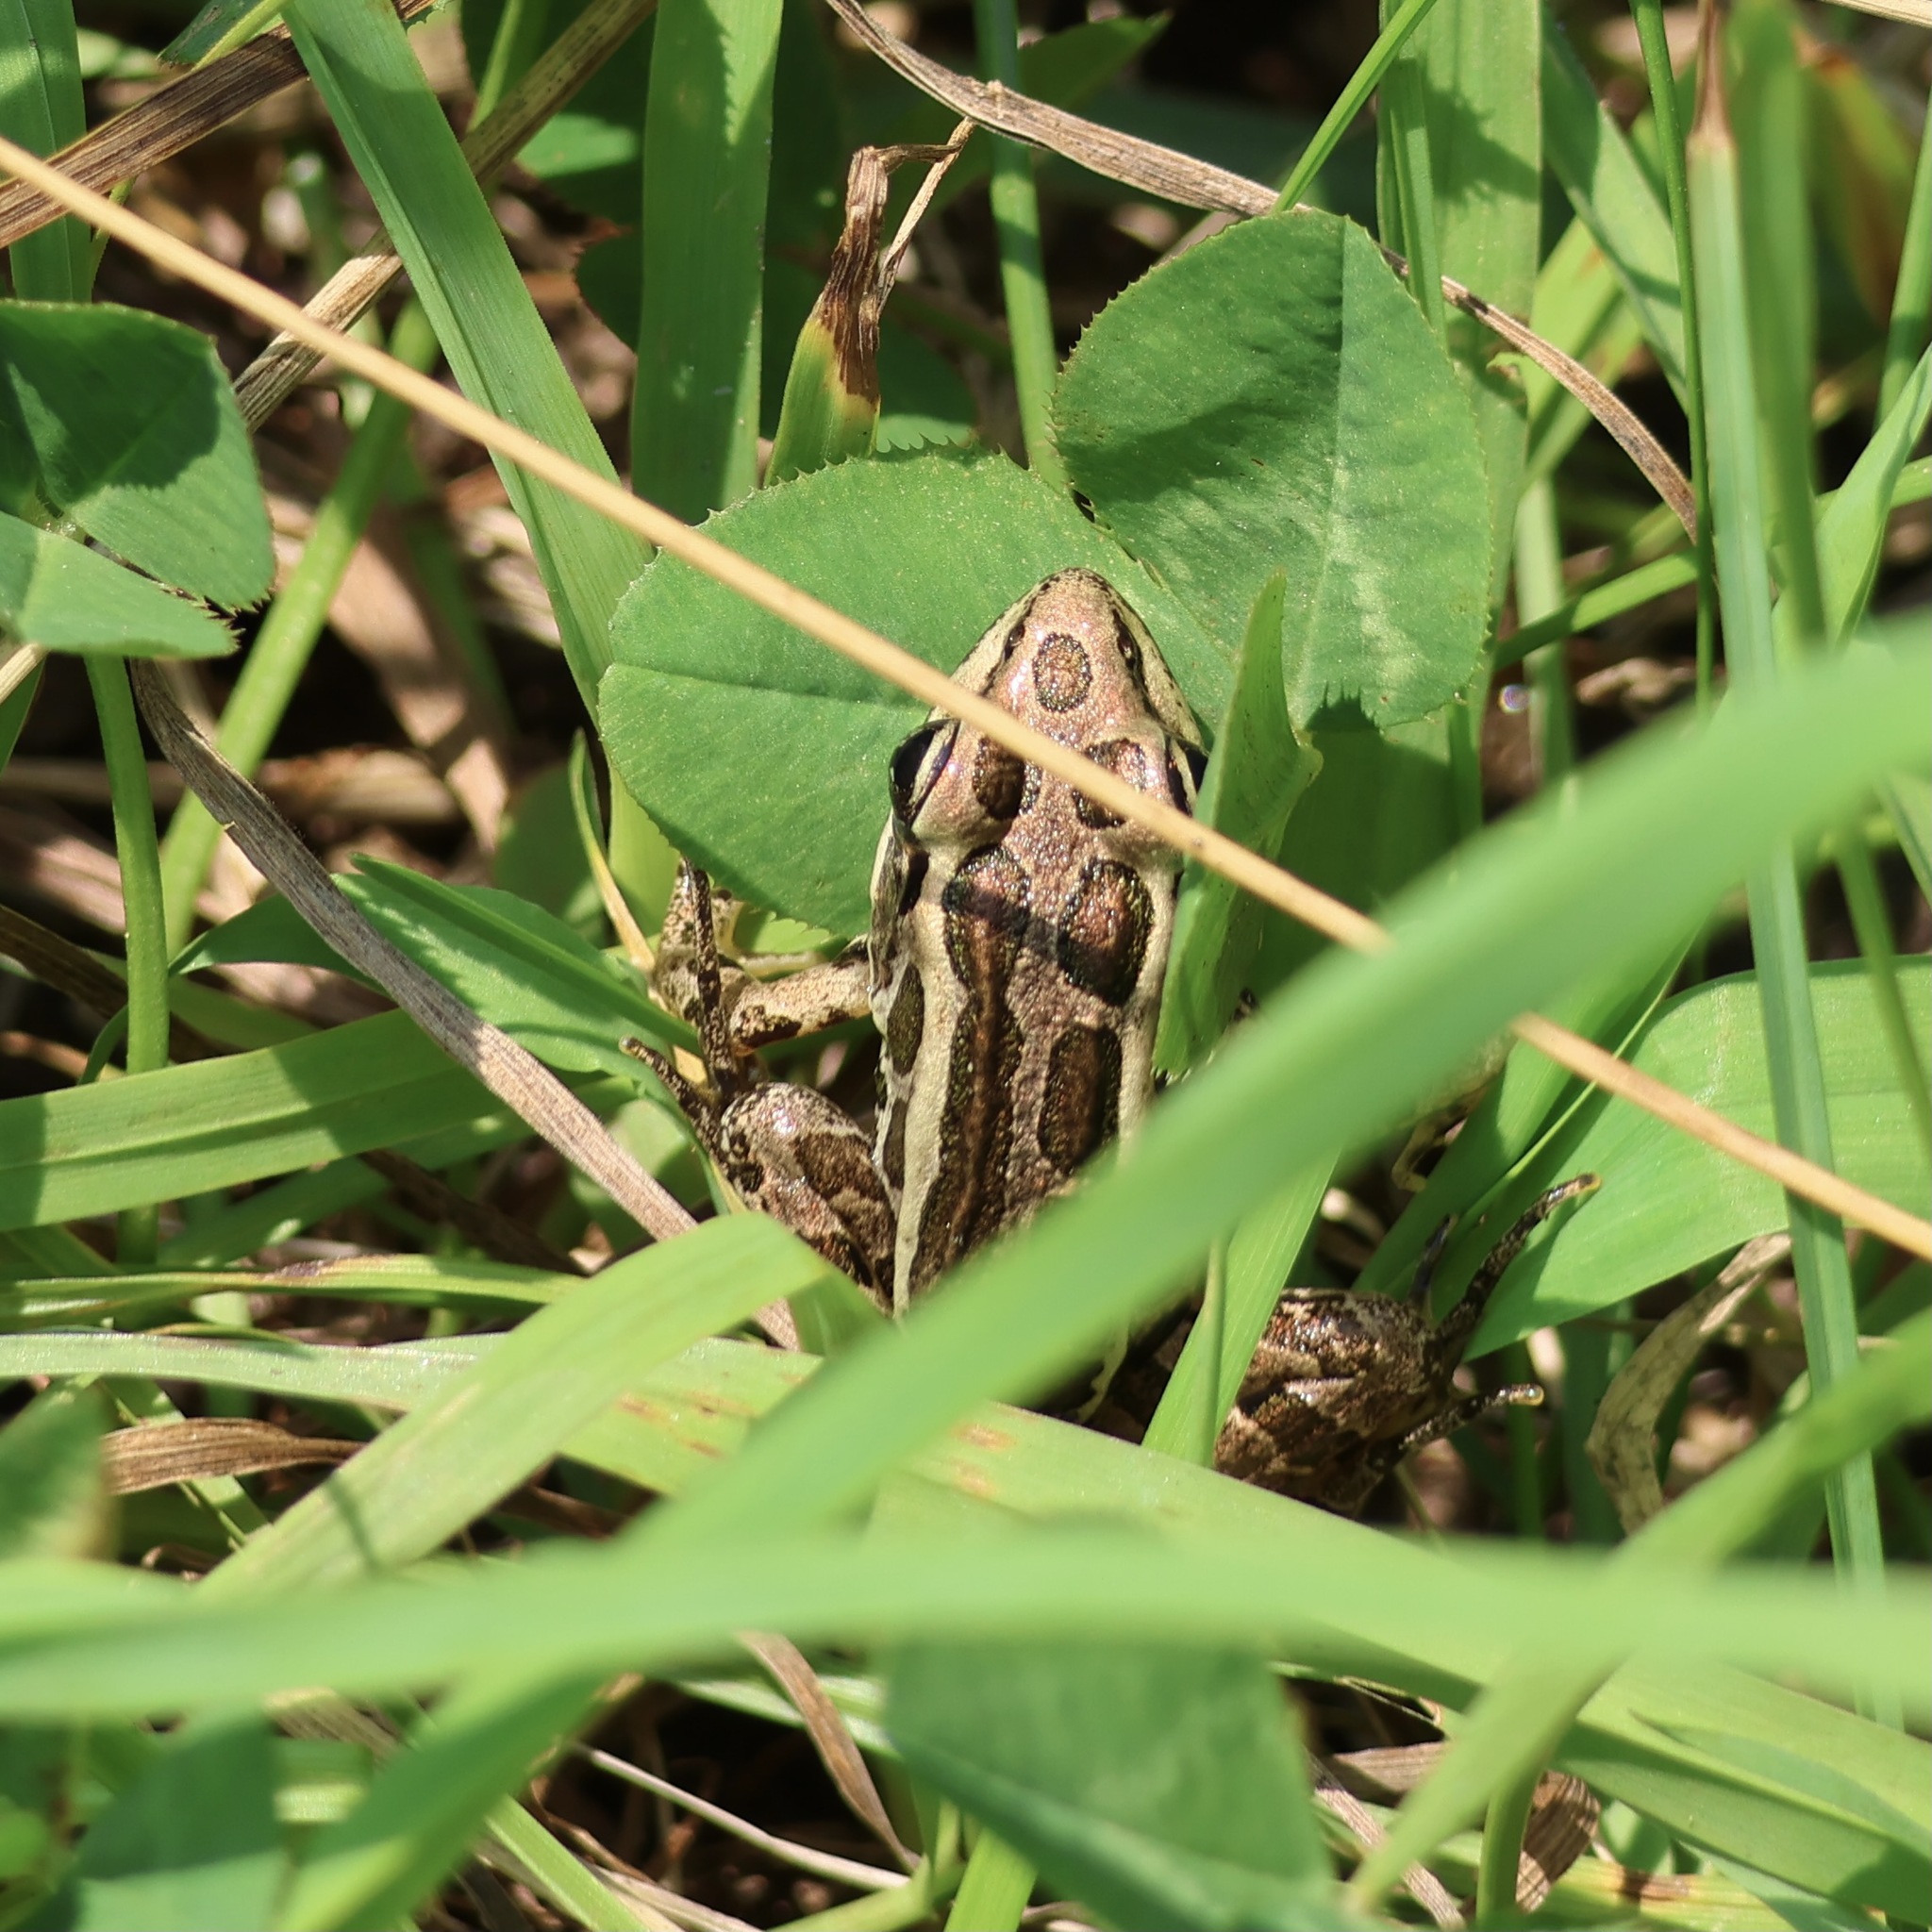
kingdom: Animalia
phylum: Chordata
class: Amphibia
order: Anura
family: Ranidae
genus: Lithobates
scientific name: Lithobates palustris
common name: Pickerel frog
